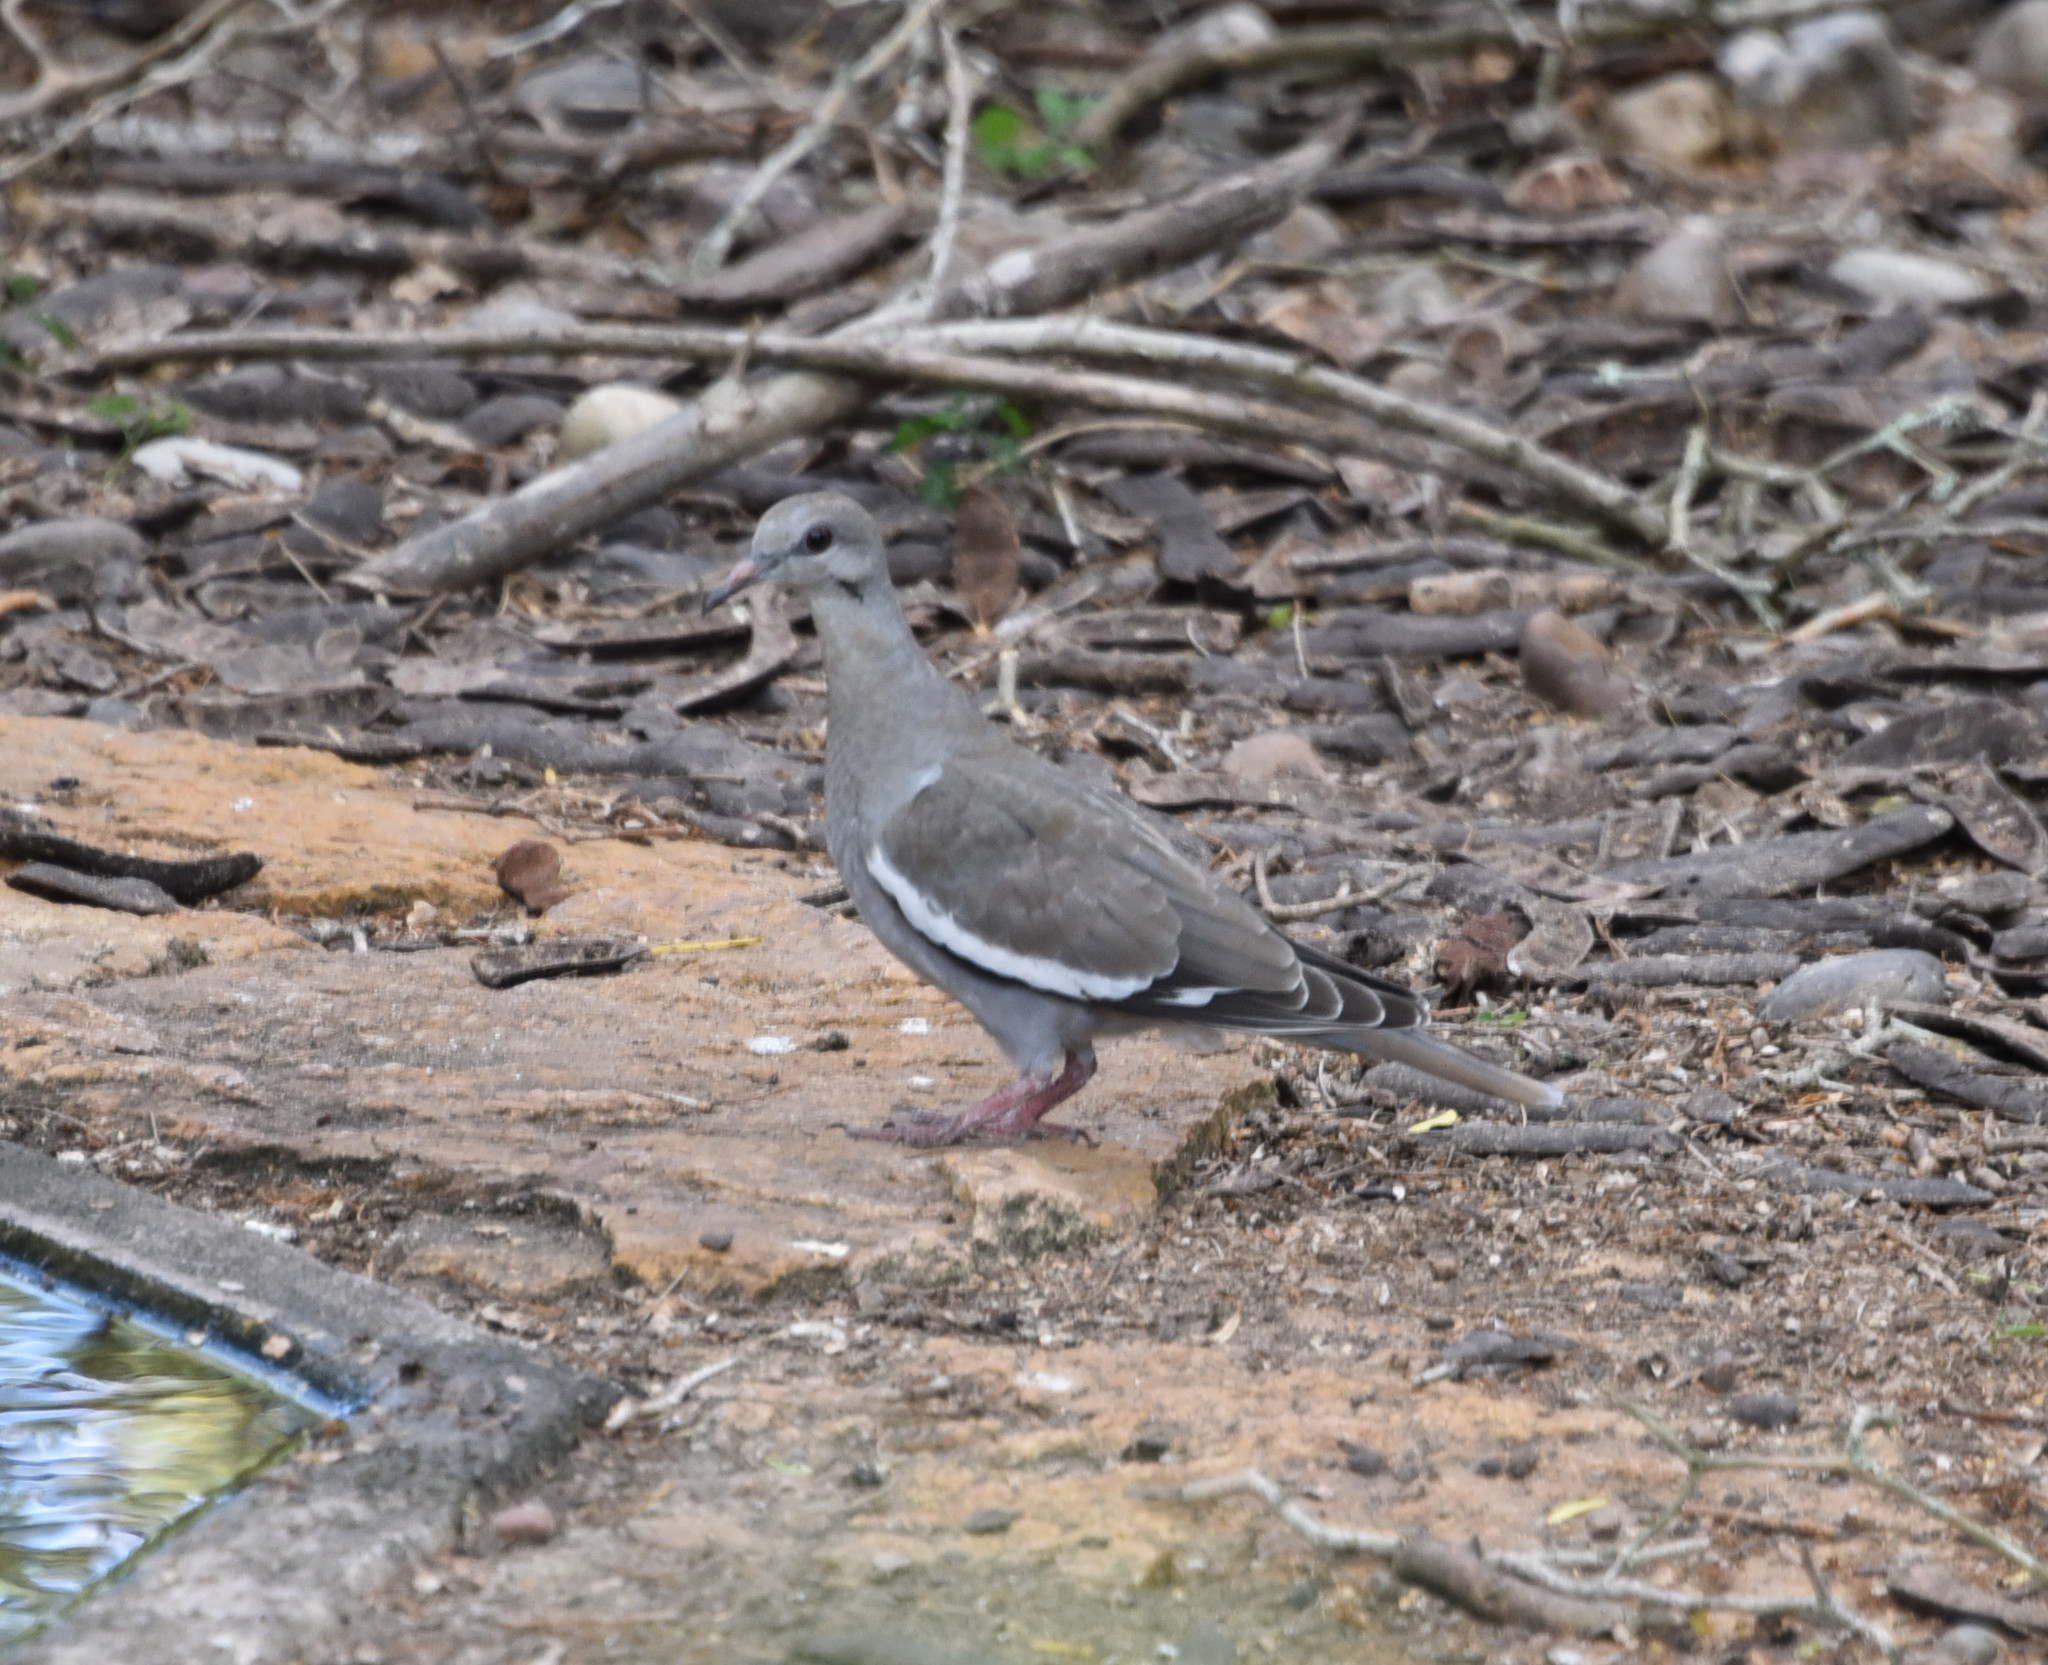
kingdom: Animalia
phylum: Chordata
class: Aves
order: Columbiformes
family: Columbidae
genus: Zenaida
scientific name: Zenaida asiatica
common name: White-winged dove
